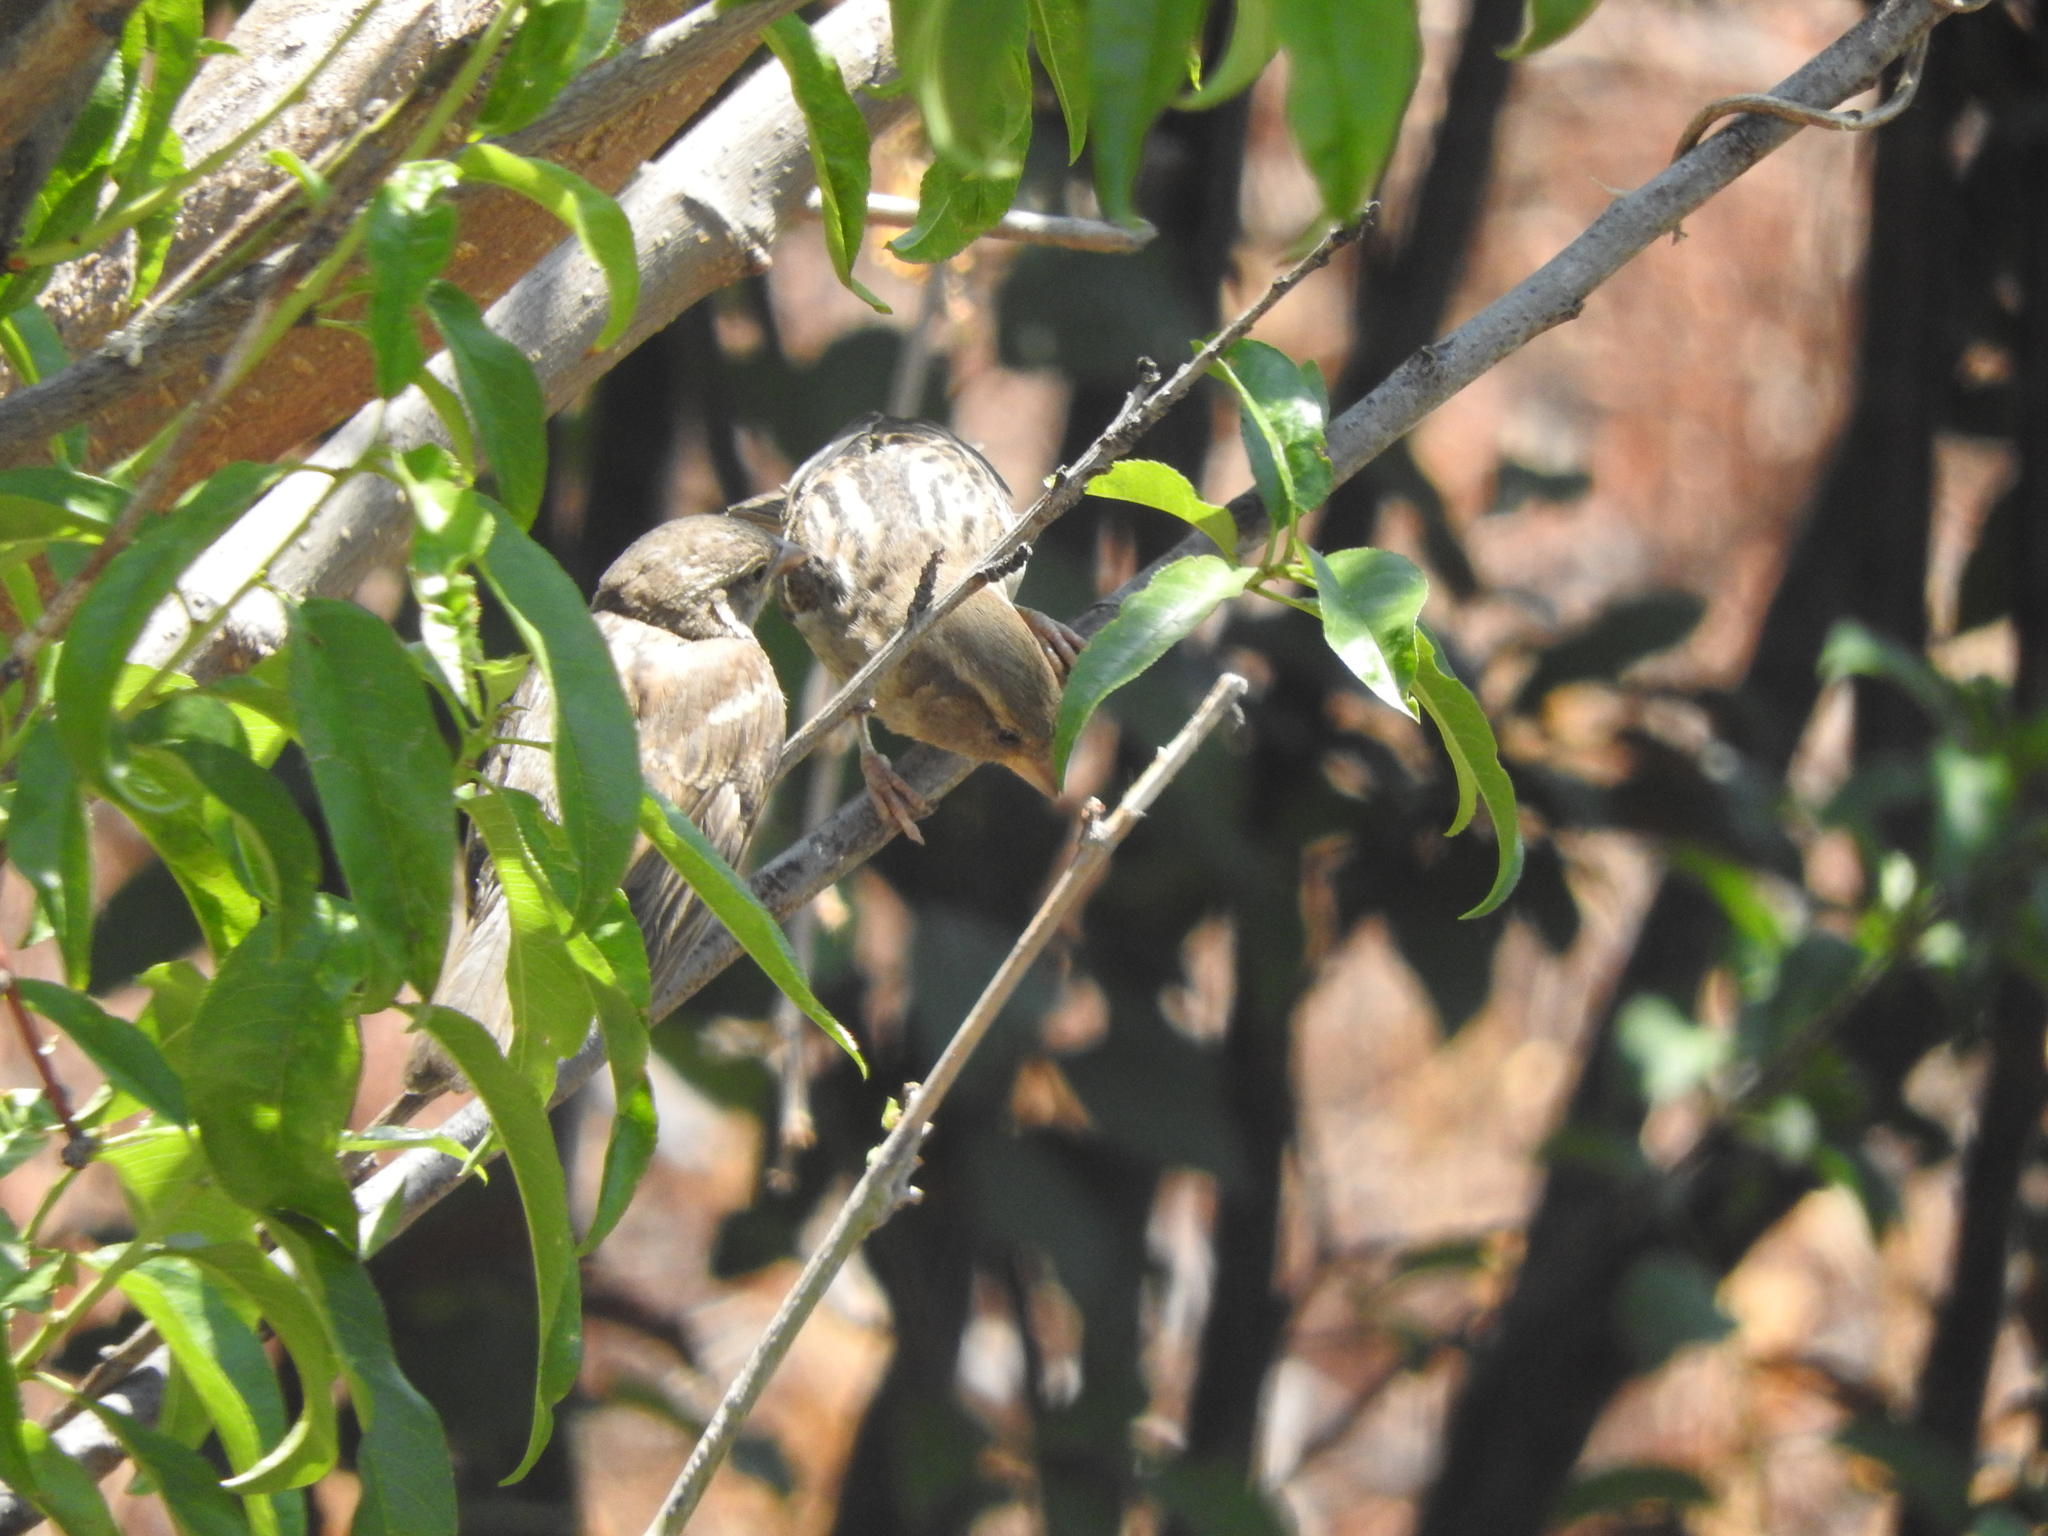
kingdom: Animalia
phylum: Chordata
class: Aves
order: Passeriformes
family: Passeridae
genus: Passer
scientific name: Passer domesticus
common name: House sparrow
